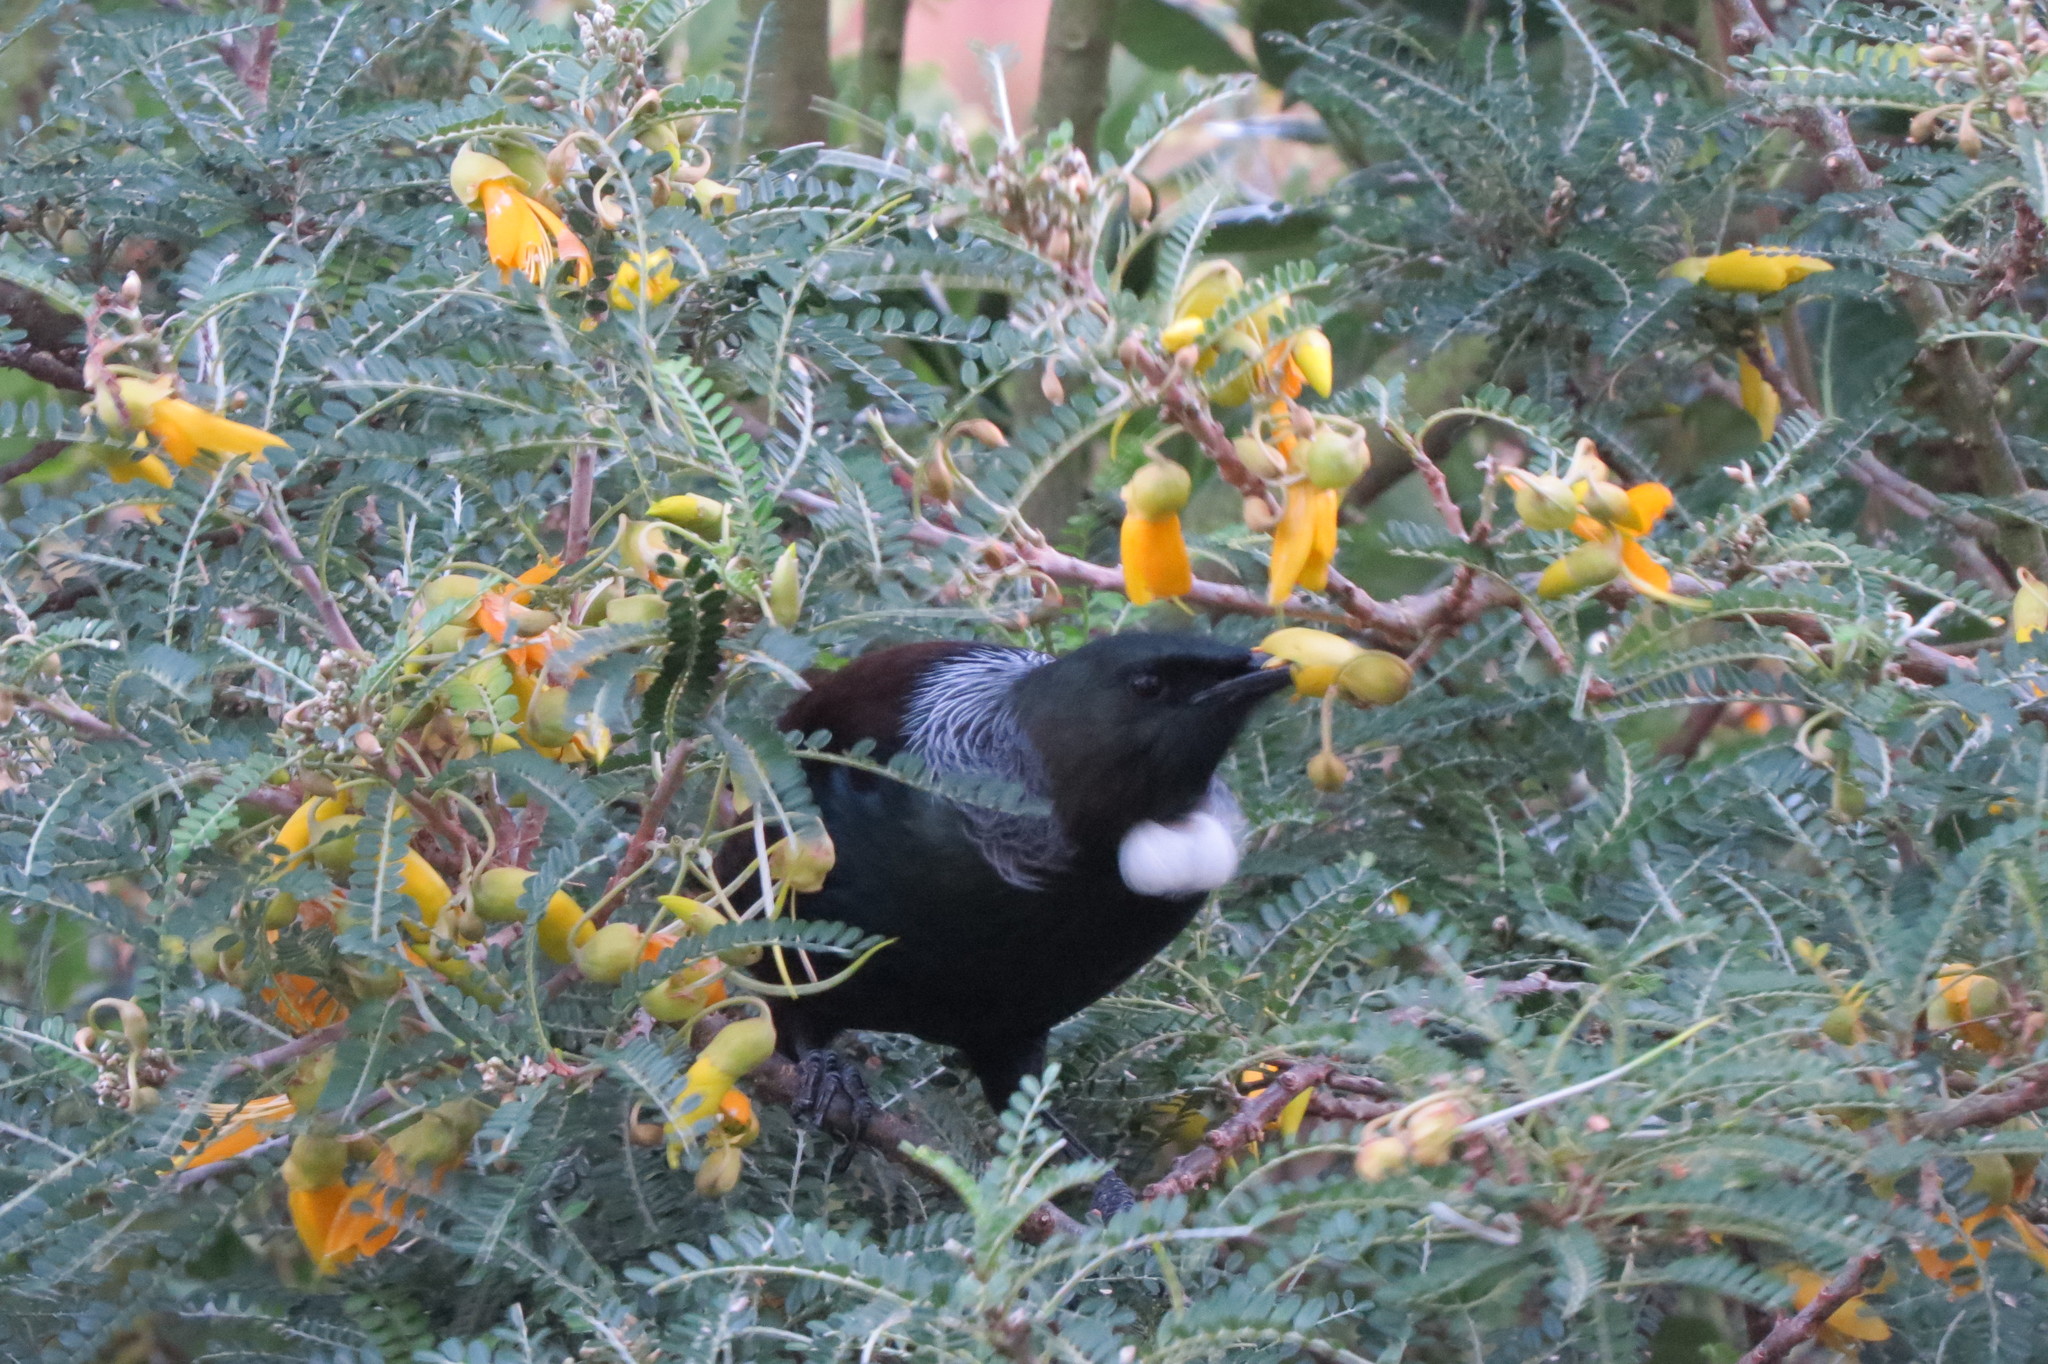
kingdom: Animalia
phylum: Chordata
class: Aves
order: Passeriformes
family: Meliphagidae
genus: Prosthemadera
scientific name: Prosthemadera novaeseelandiae
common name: Tui
